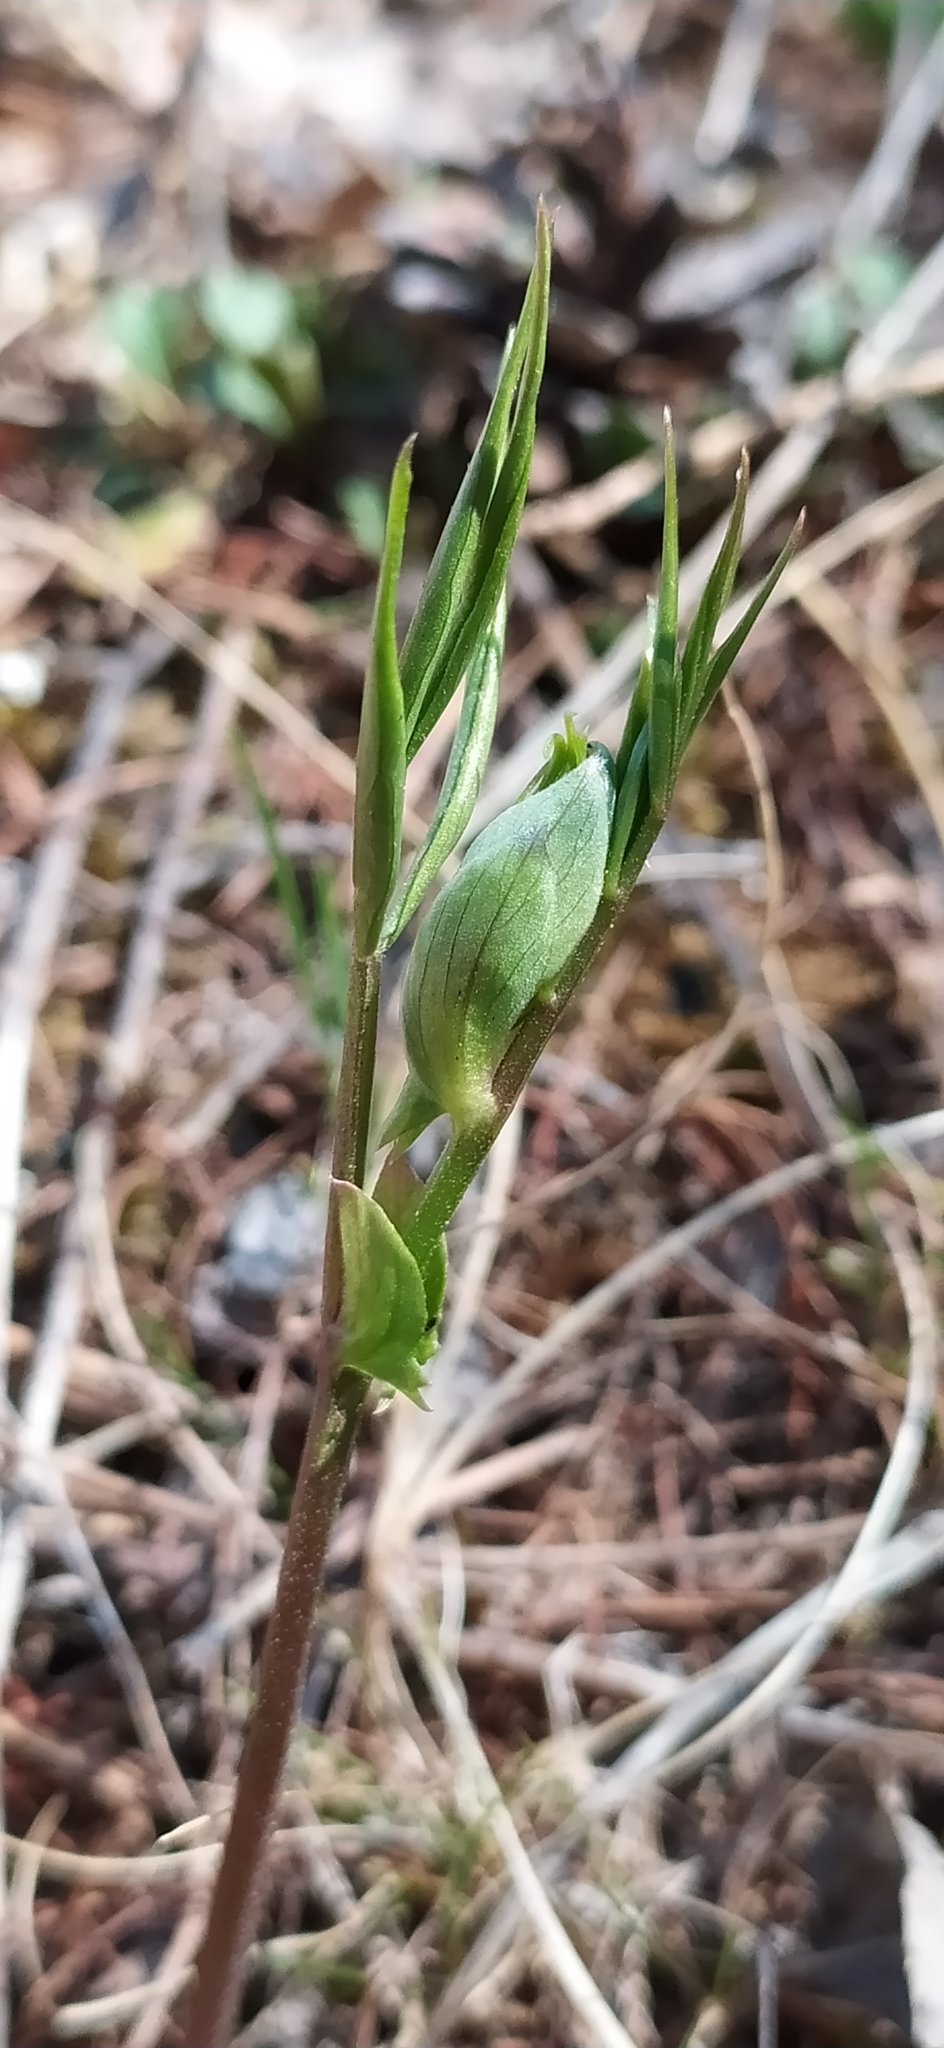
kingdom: Plantae
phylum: Tracheophyta
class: Magnoliopsida
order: Fabales
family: Fabaceae
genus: Lathyrus
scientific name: Lathyrus vernus
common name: Spring pea
